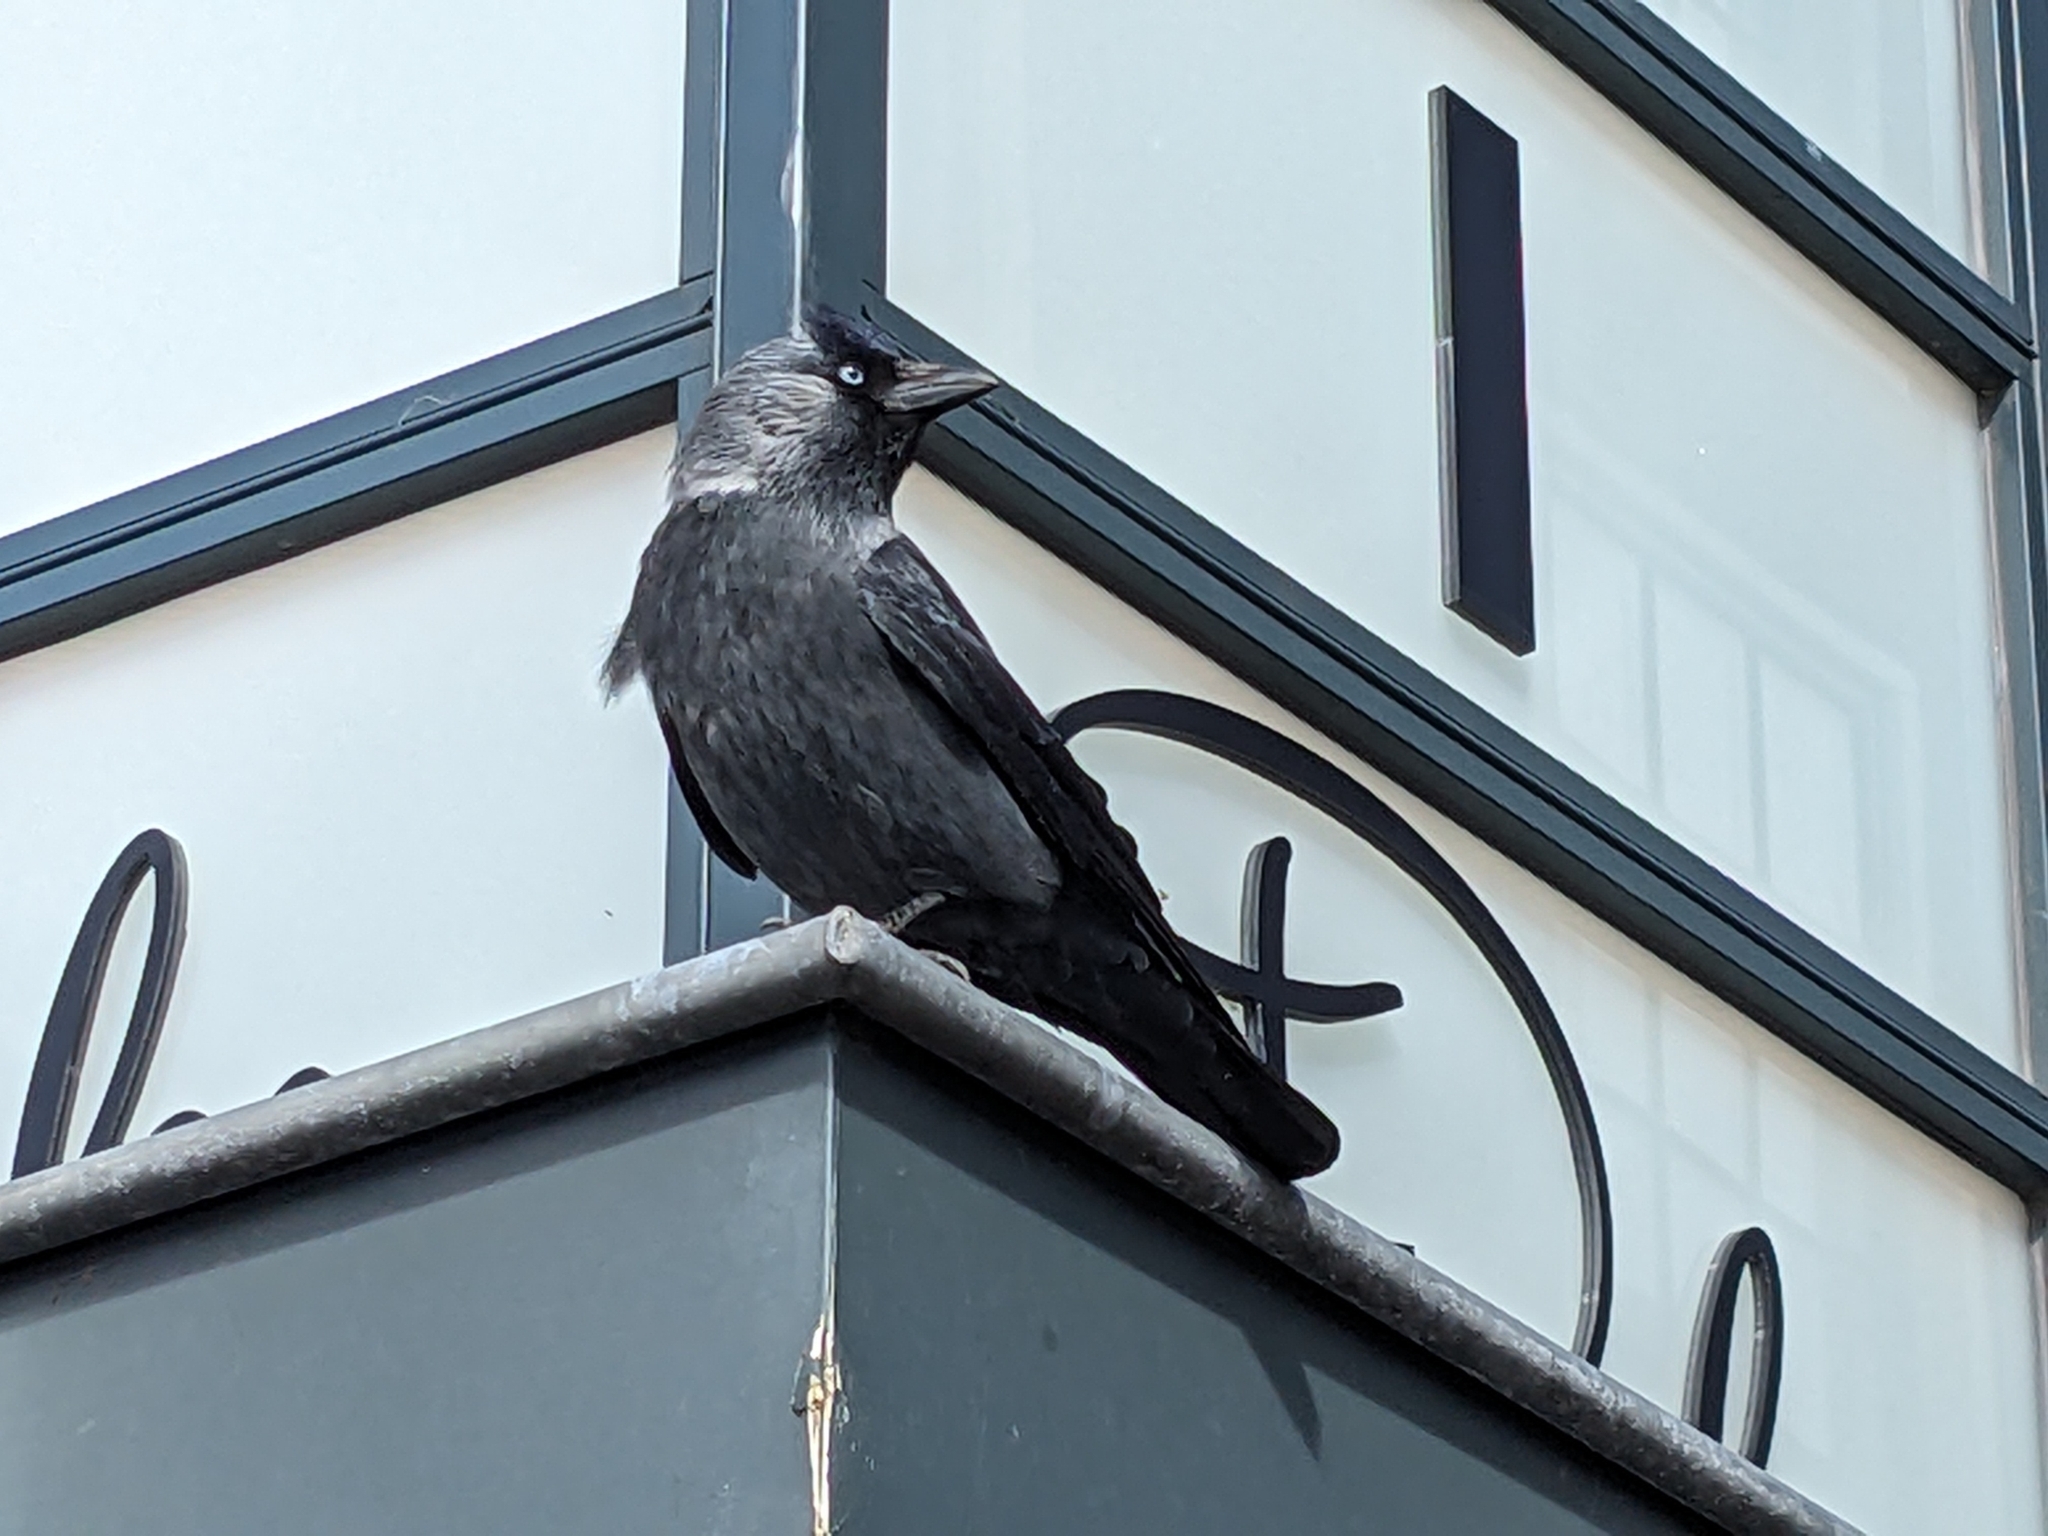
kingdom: Animalia
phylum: Chordata
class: Aves
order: Passeriformes
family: Corvidae
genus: Coloeus
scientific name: Coloeus monedula
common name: Western jackdaw
